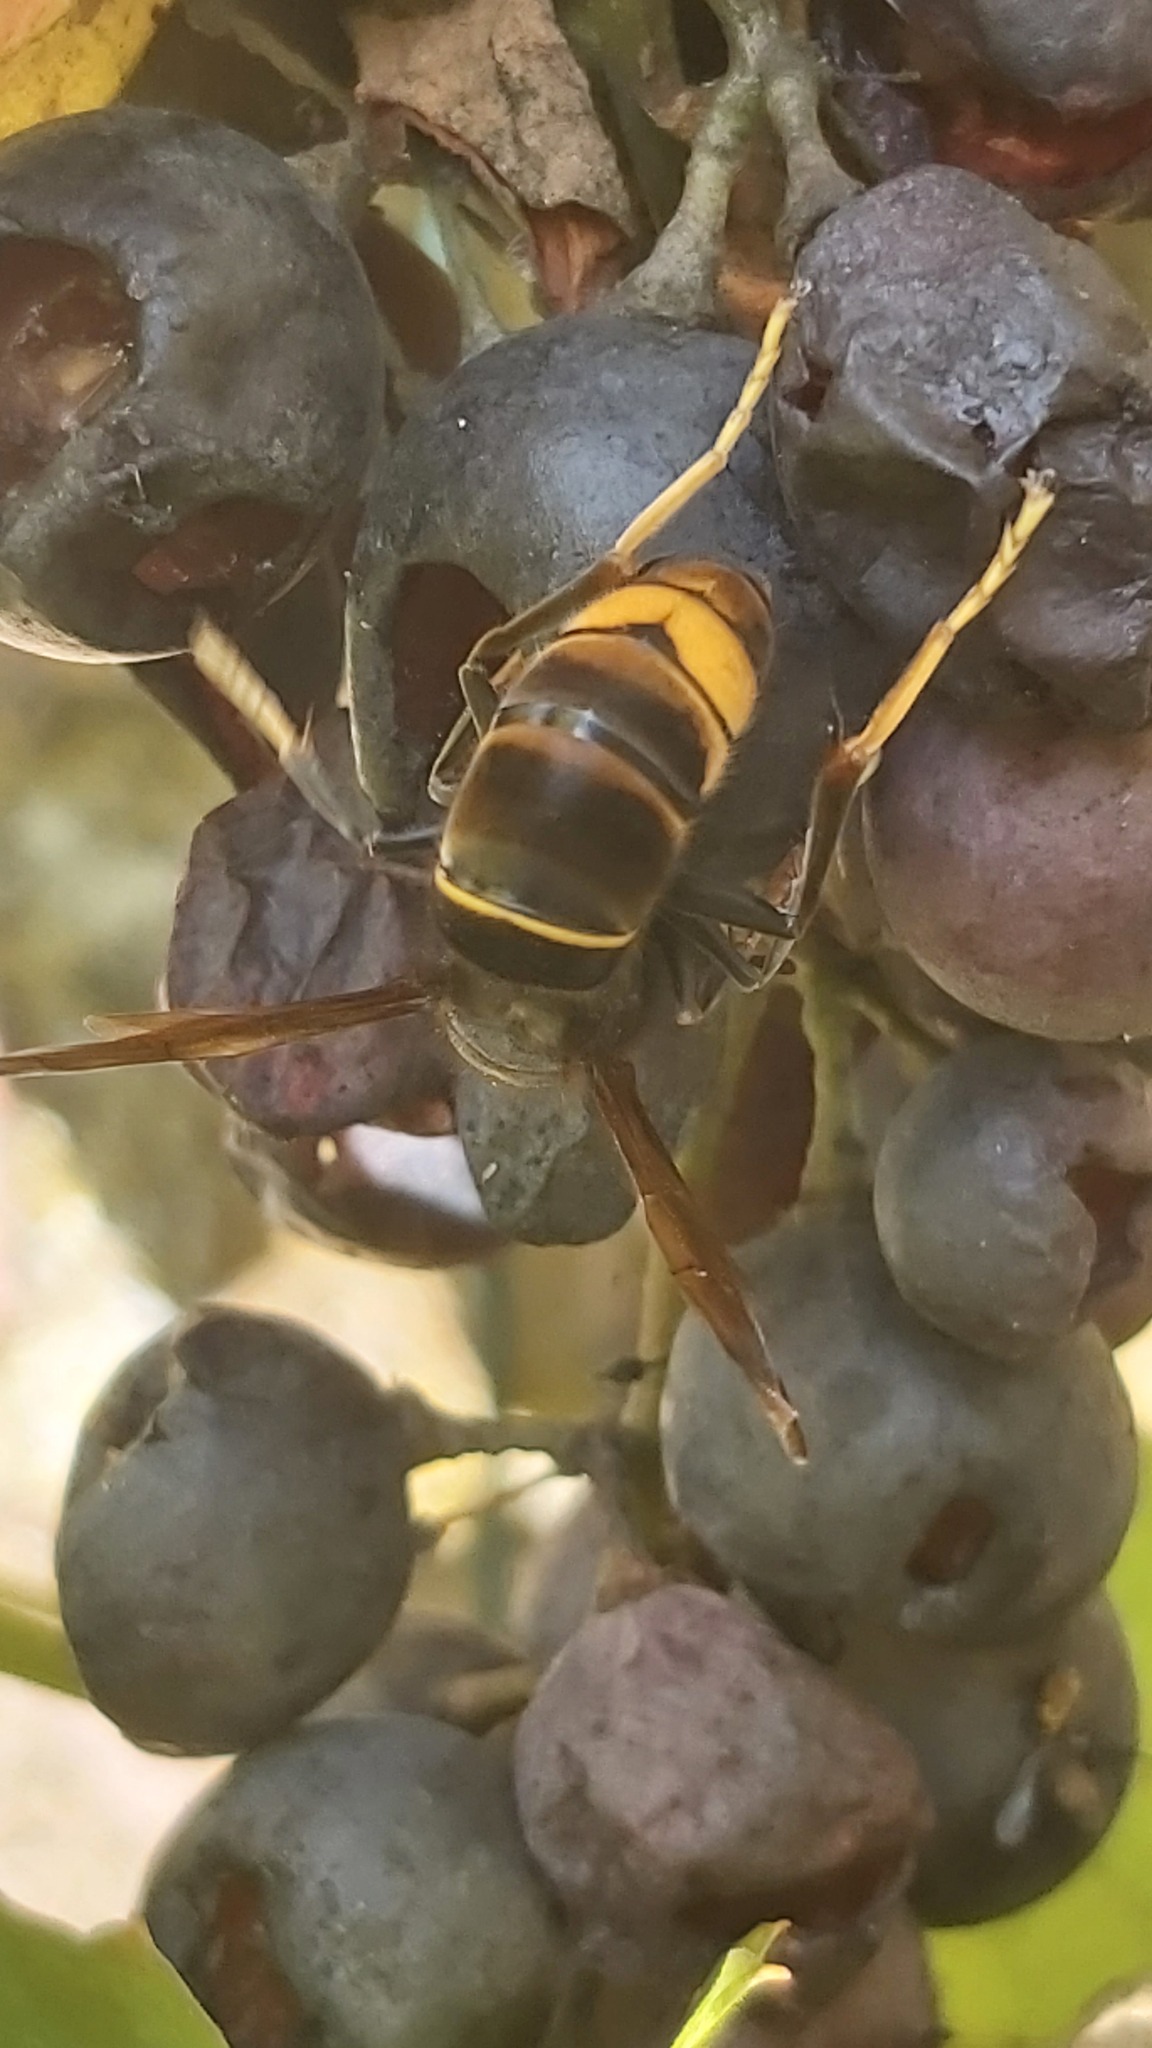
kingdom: Animalia
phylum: Arthropoda
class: Insecta
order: Hymenoptera
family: Vespidae
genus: Vespa
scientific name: Vespa velutina
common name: Asian hornet
